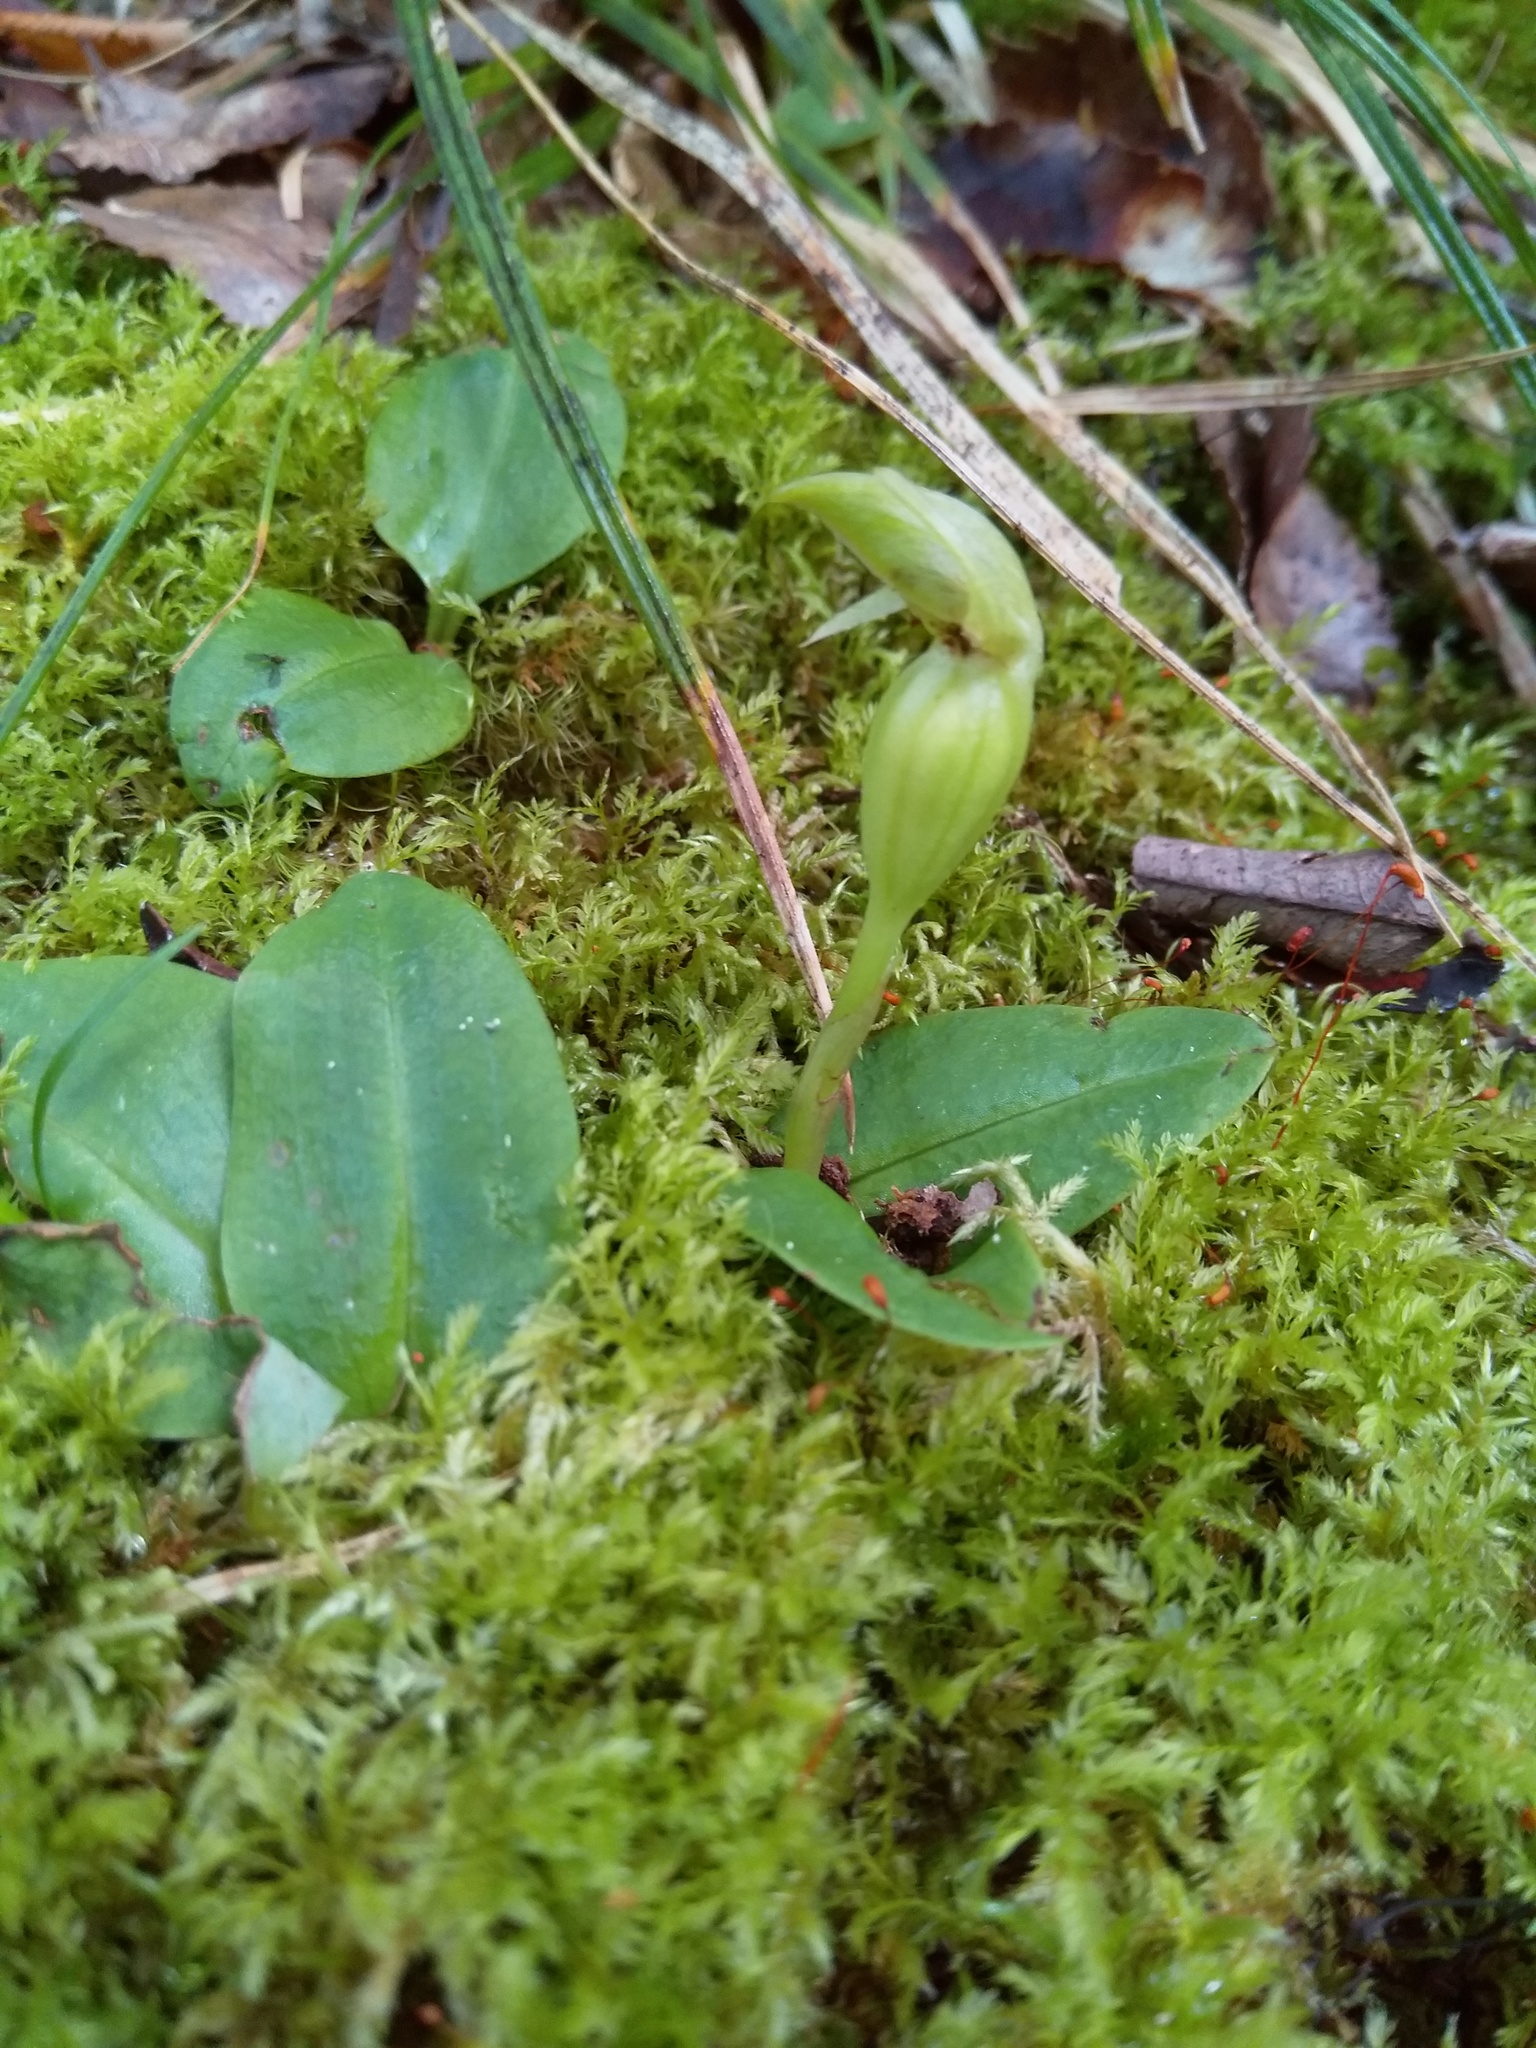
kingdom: Plantae
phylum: Tracheophyta
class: Liliopsida
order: Asparagales
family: Orchidaceae
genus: Chiloglottis
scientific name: Chiloglottis cornuta
